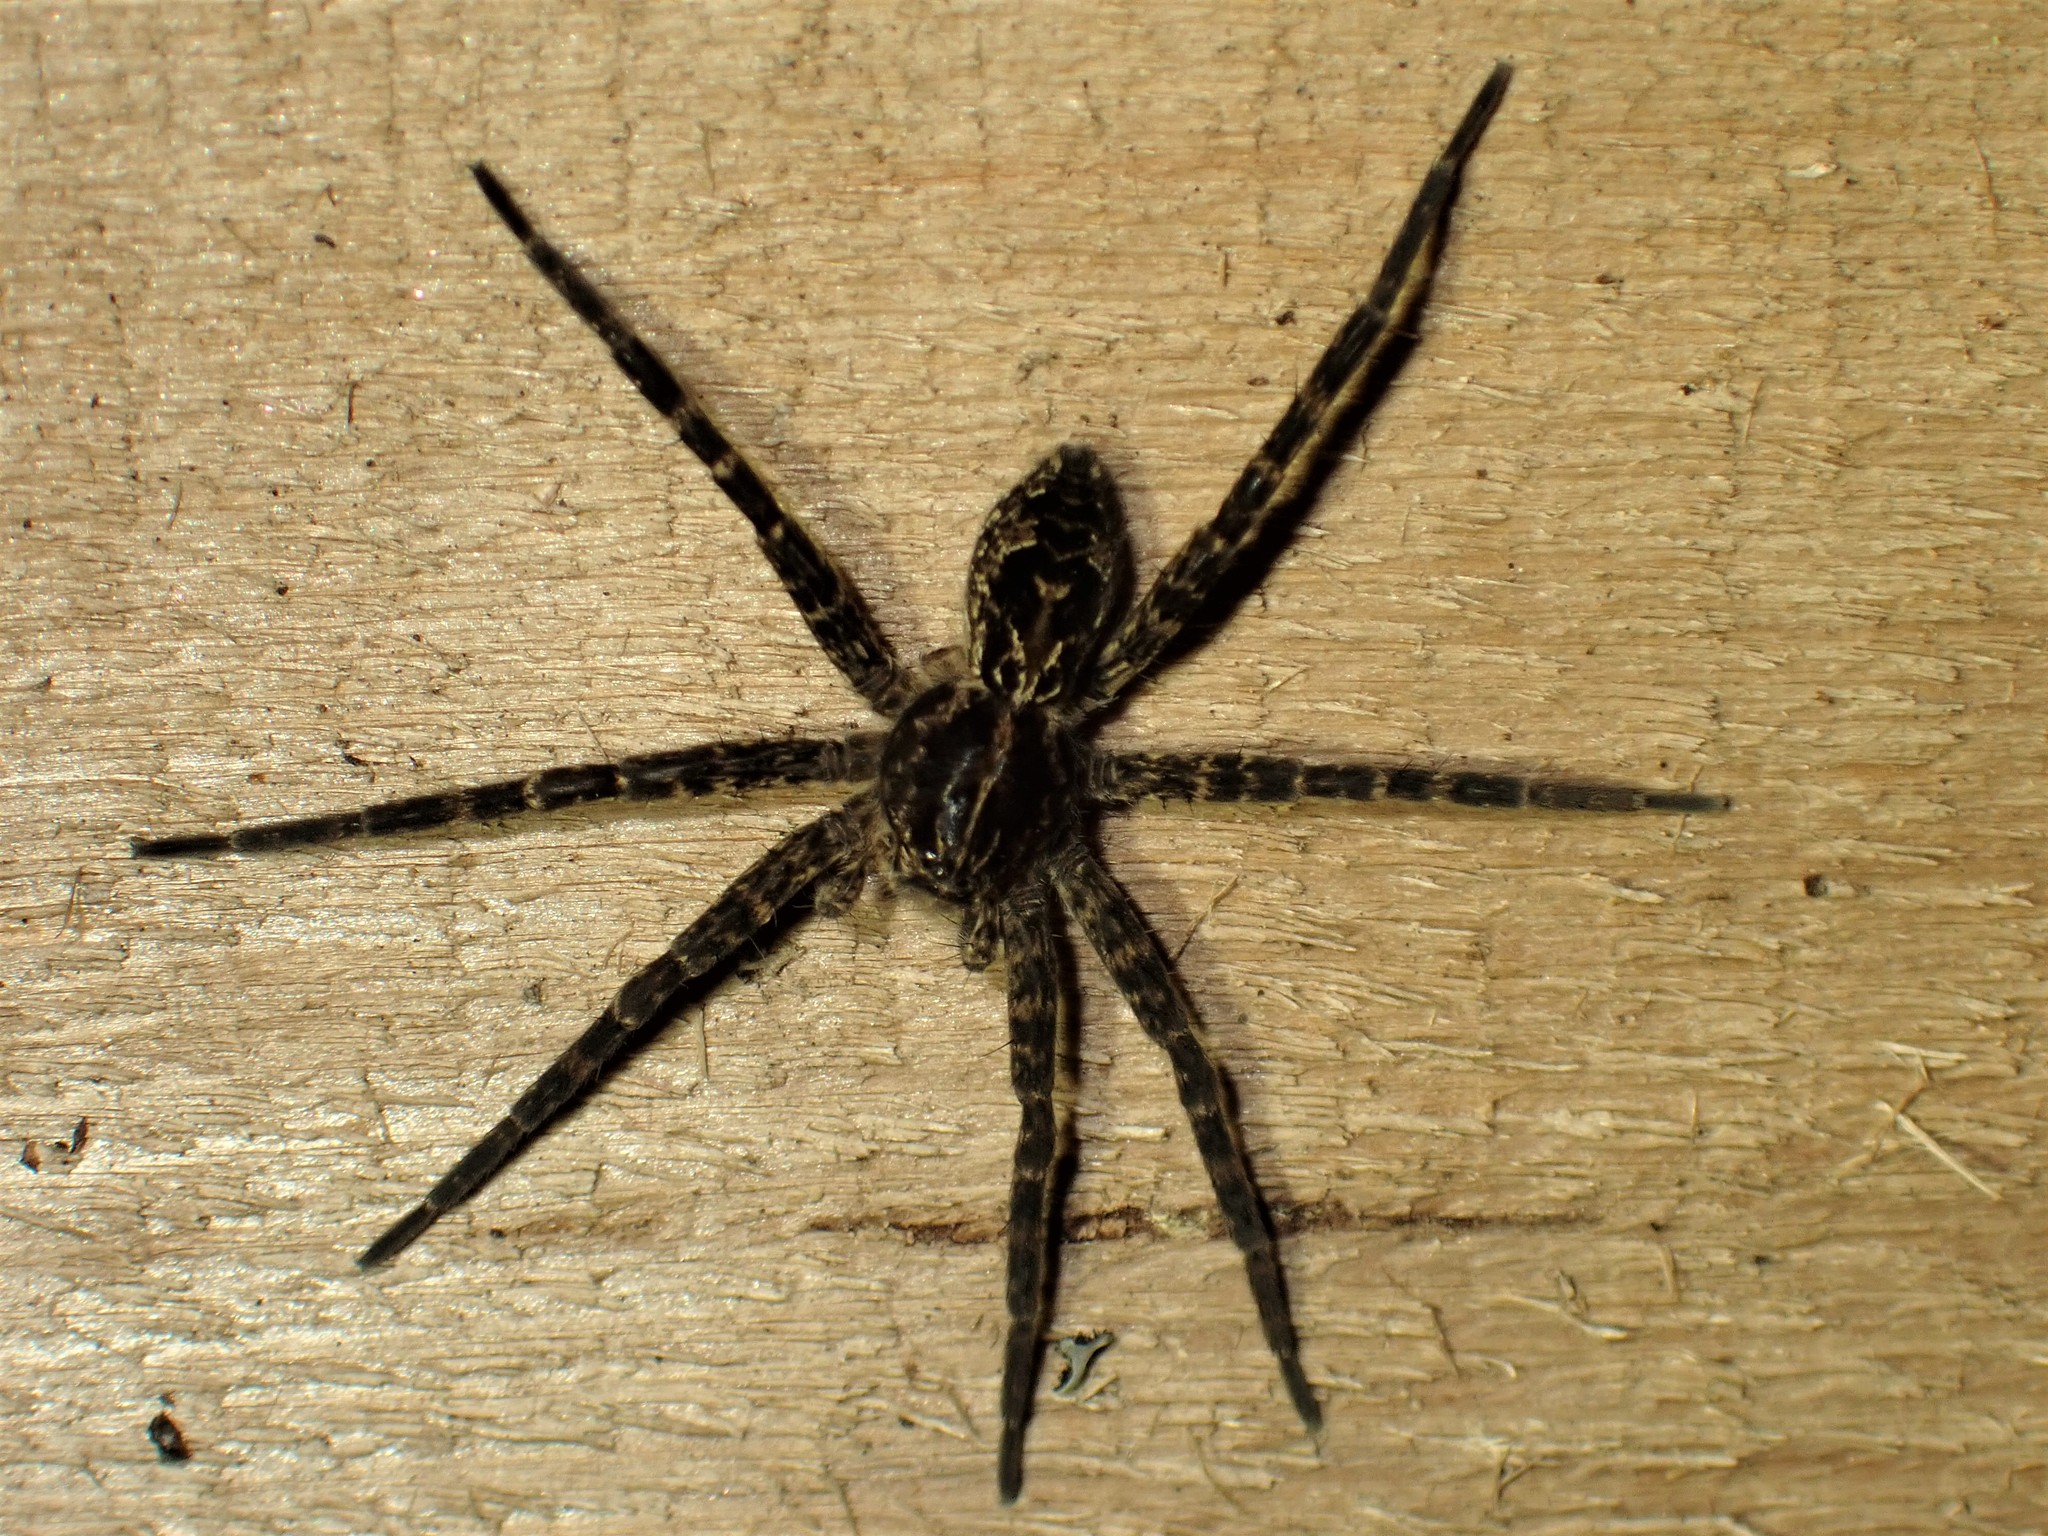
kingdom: Animalia
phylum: Arthropoda
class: Arachnida
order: Araneae
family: Pisauridae
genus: Dolomedes
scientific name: Dolomedes scriptus
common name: Striped fishing spider
